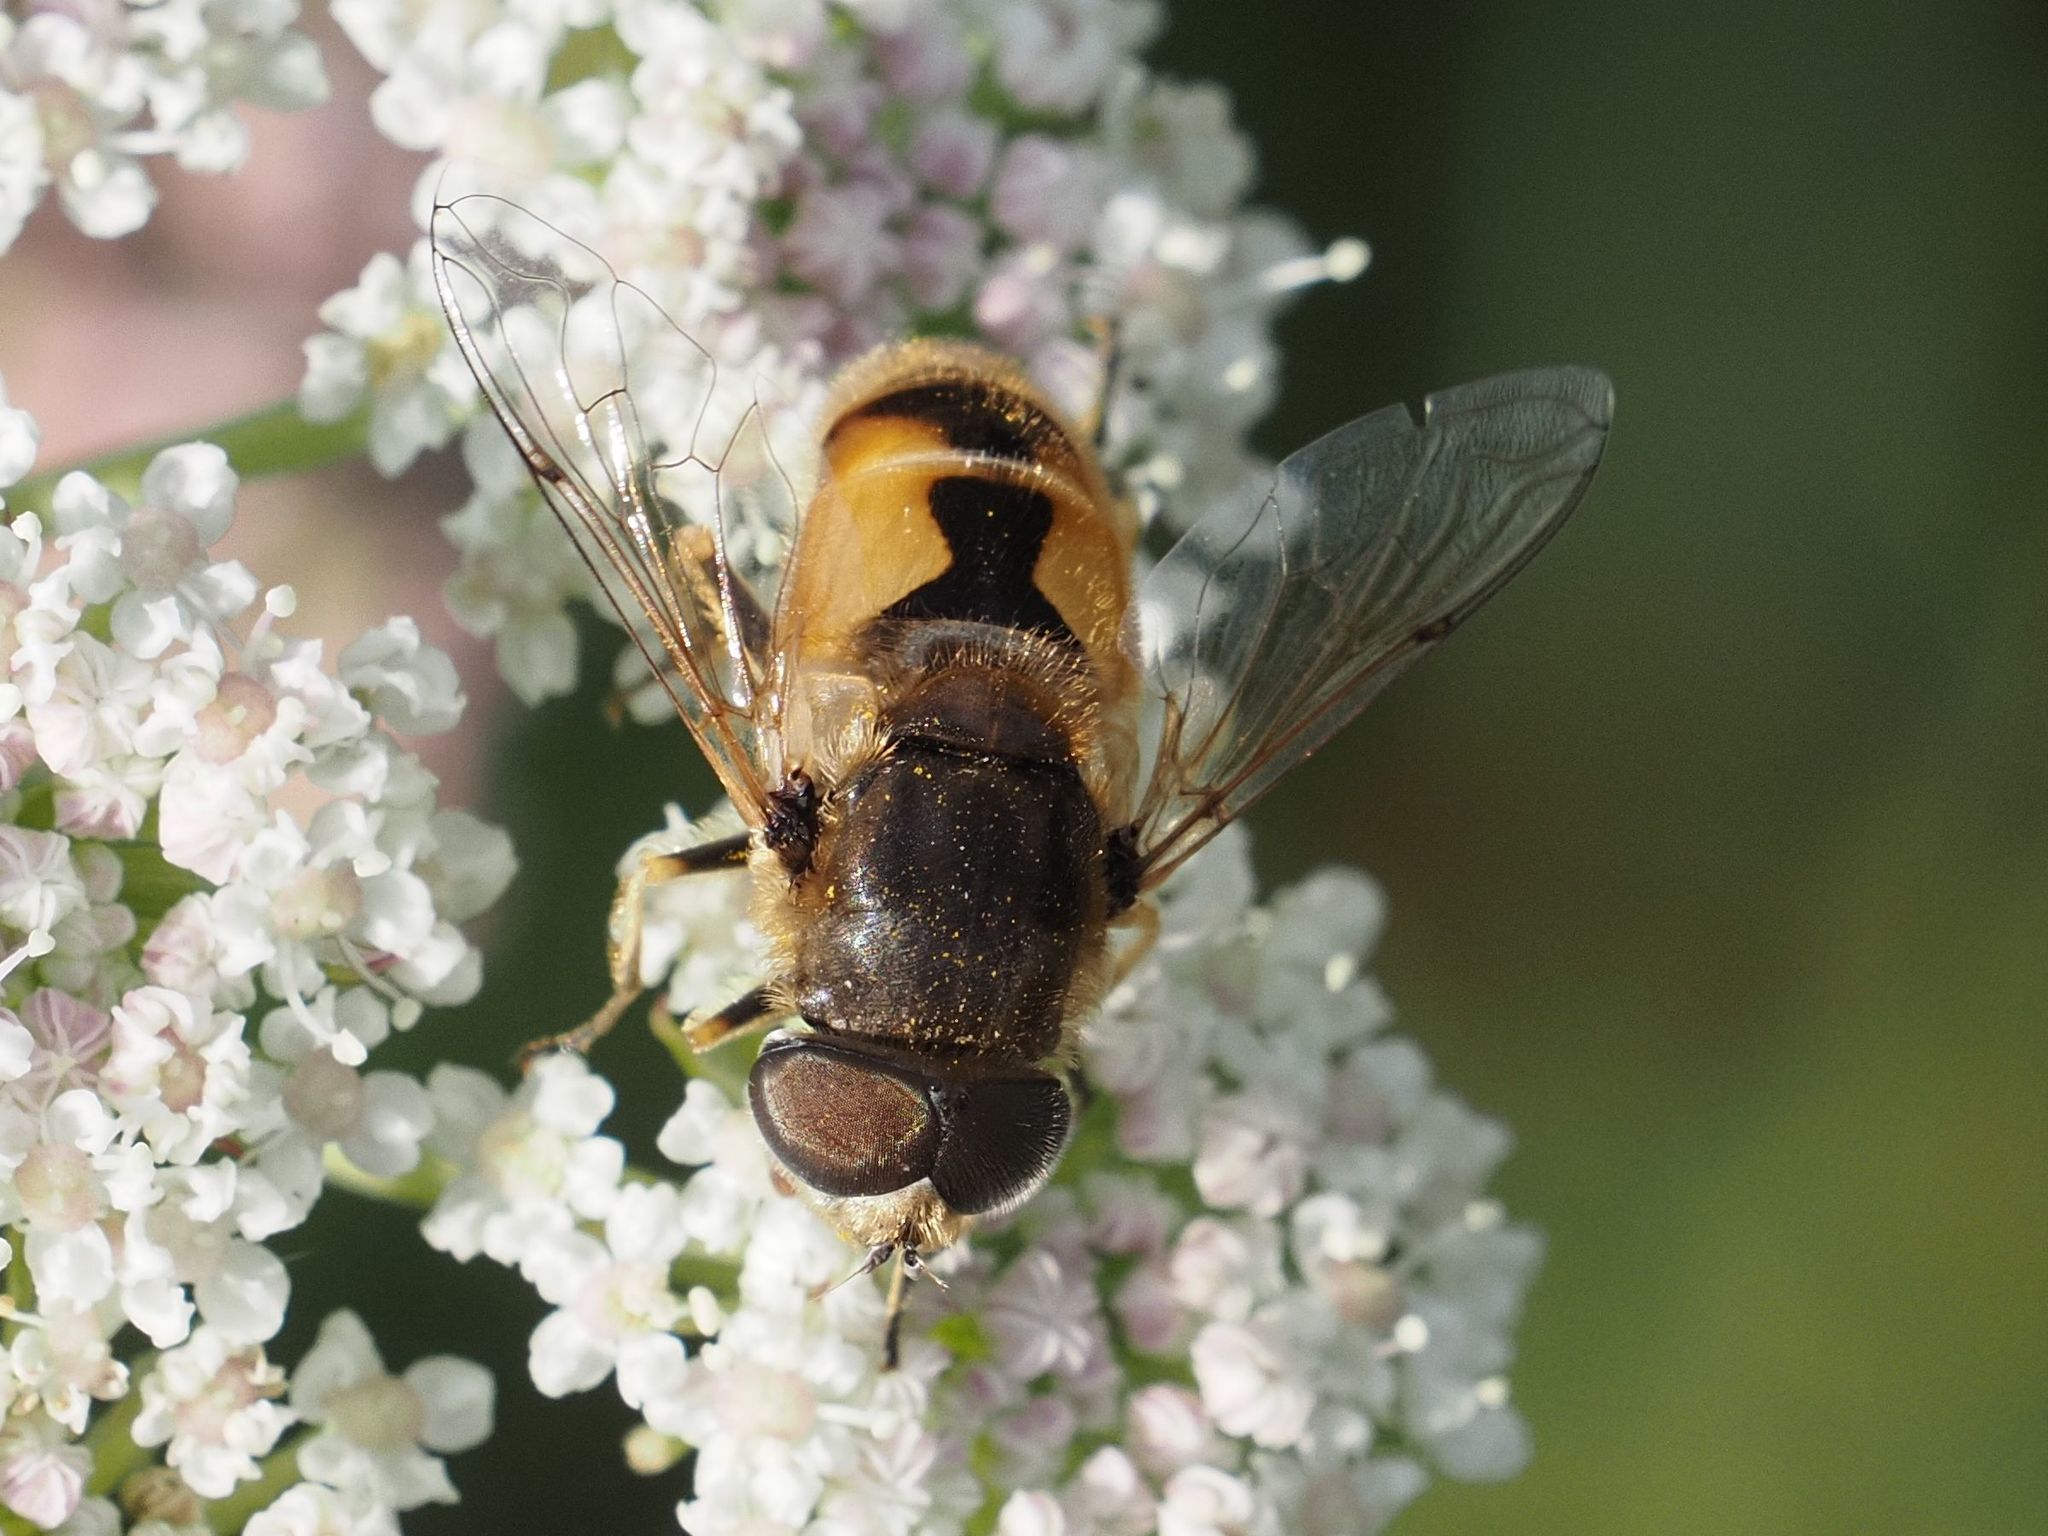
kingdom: Animalia
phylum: Arthropoda
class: Insecta
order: Diptera
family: Syrphidae
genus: Eristalis
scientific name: Eristalis arbustorum
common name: Hover fly
